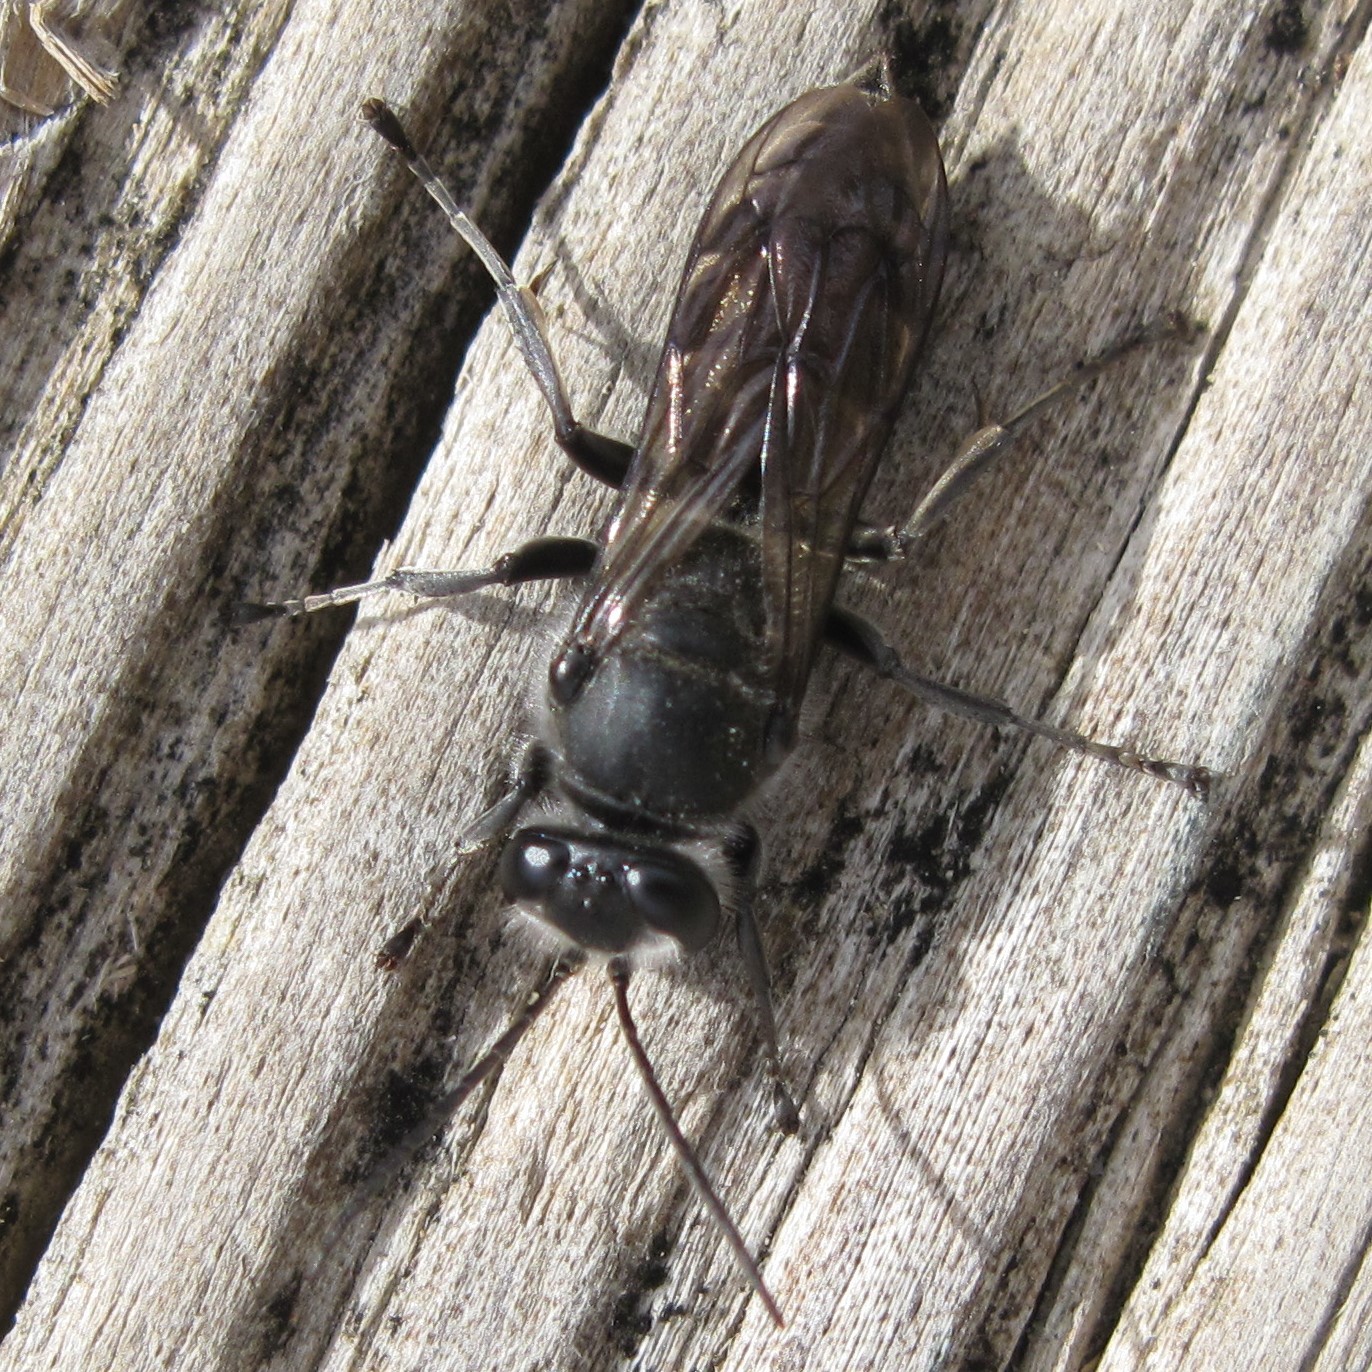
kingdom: Animalia
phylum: Arthropoda
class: Insecta
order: Hymenoptera
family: Crabronidae
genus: Pison
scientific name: Pison spinolae
